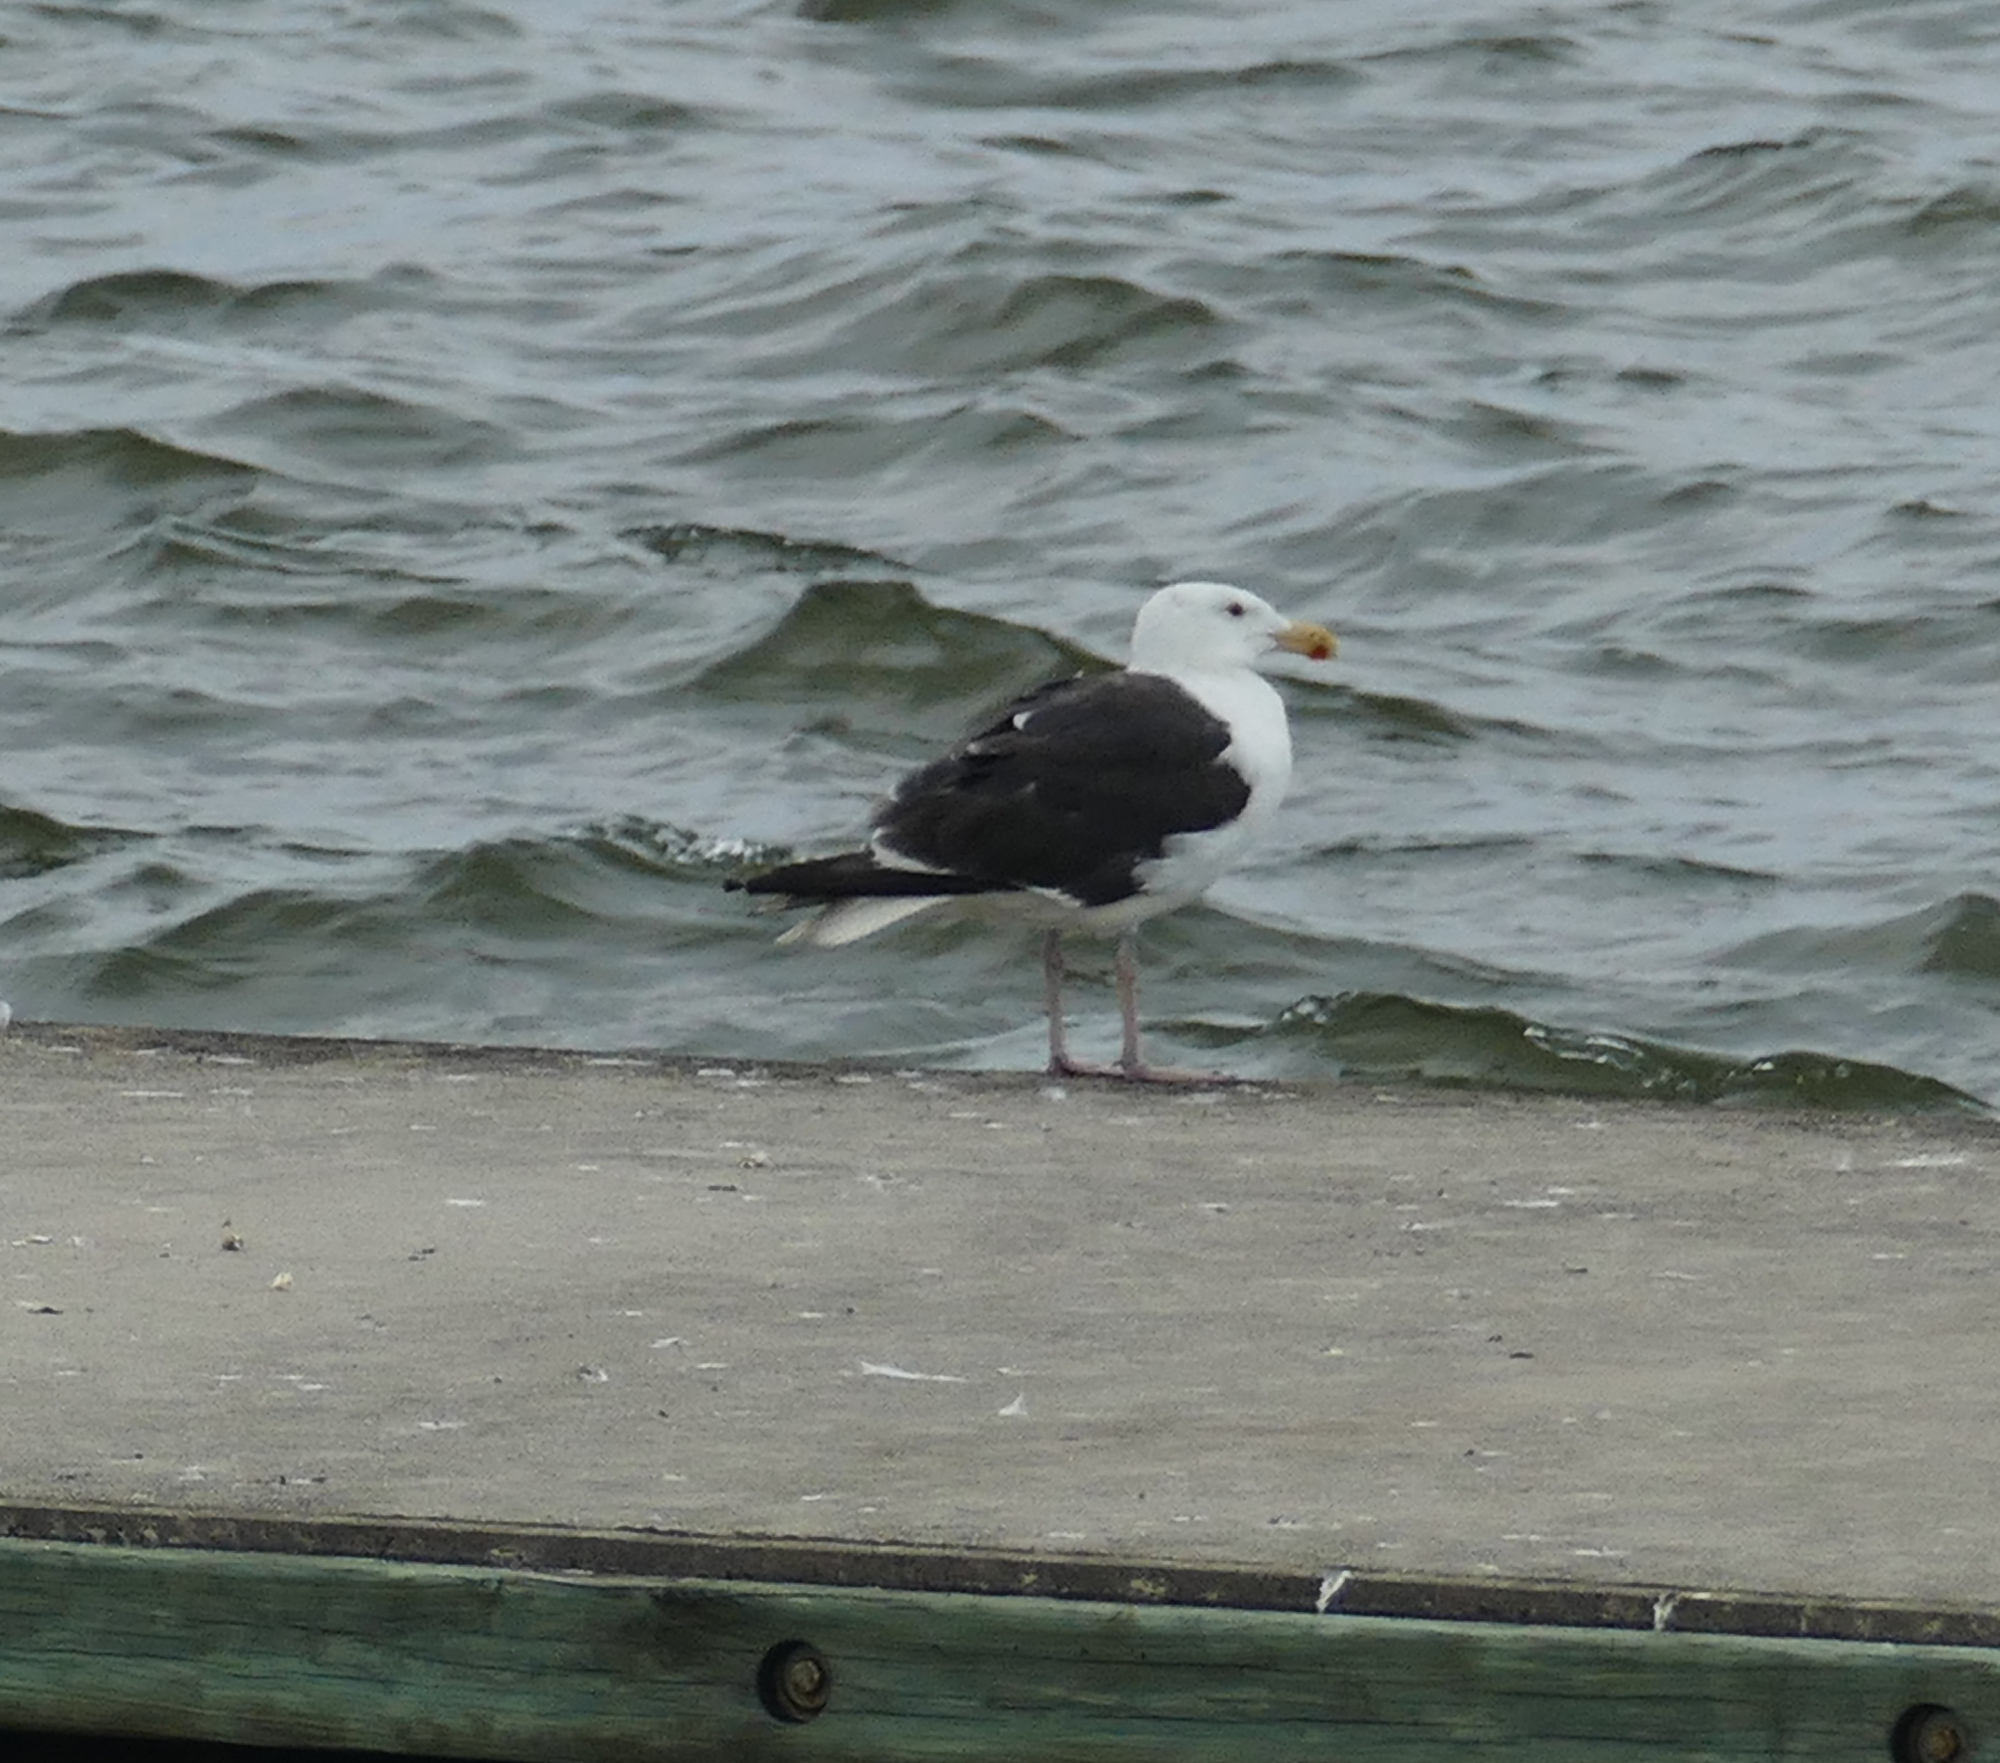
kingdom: Animalia
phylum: Chordata
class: Aves
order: Charadriiformes
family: Laridae
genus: Larus
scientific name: Larus marinus
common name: Great black-backed gull
